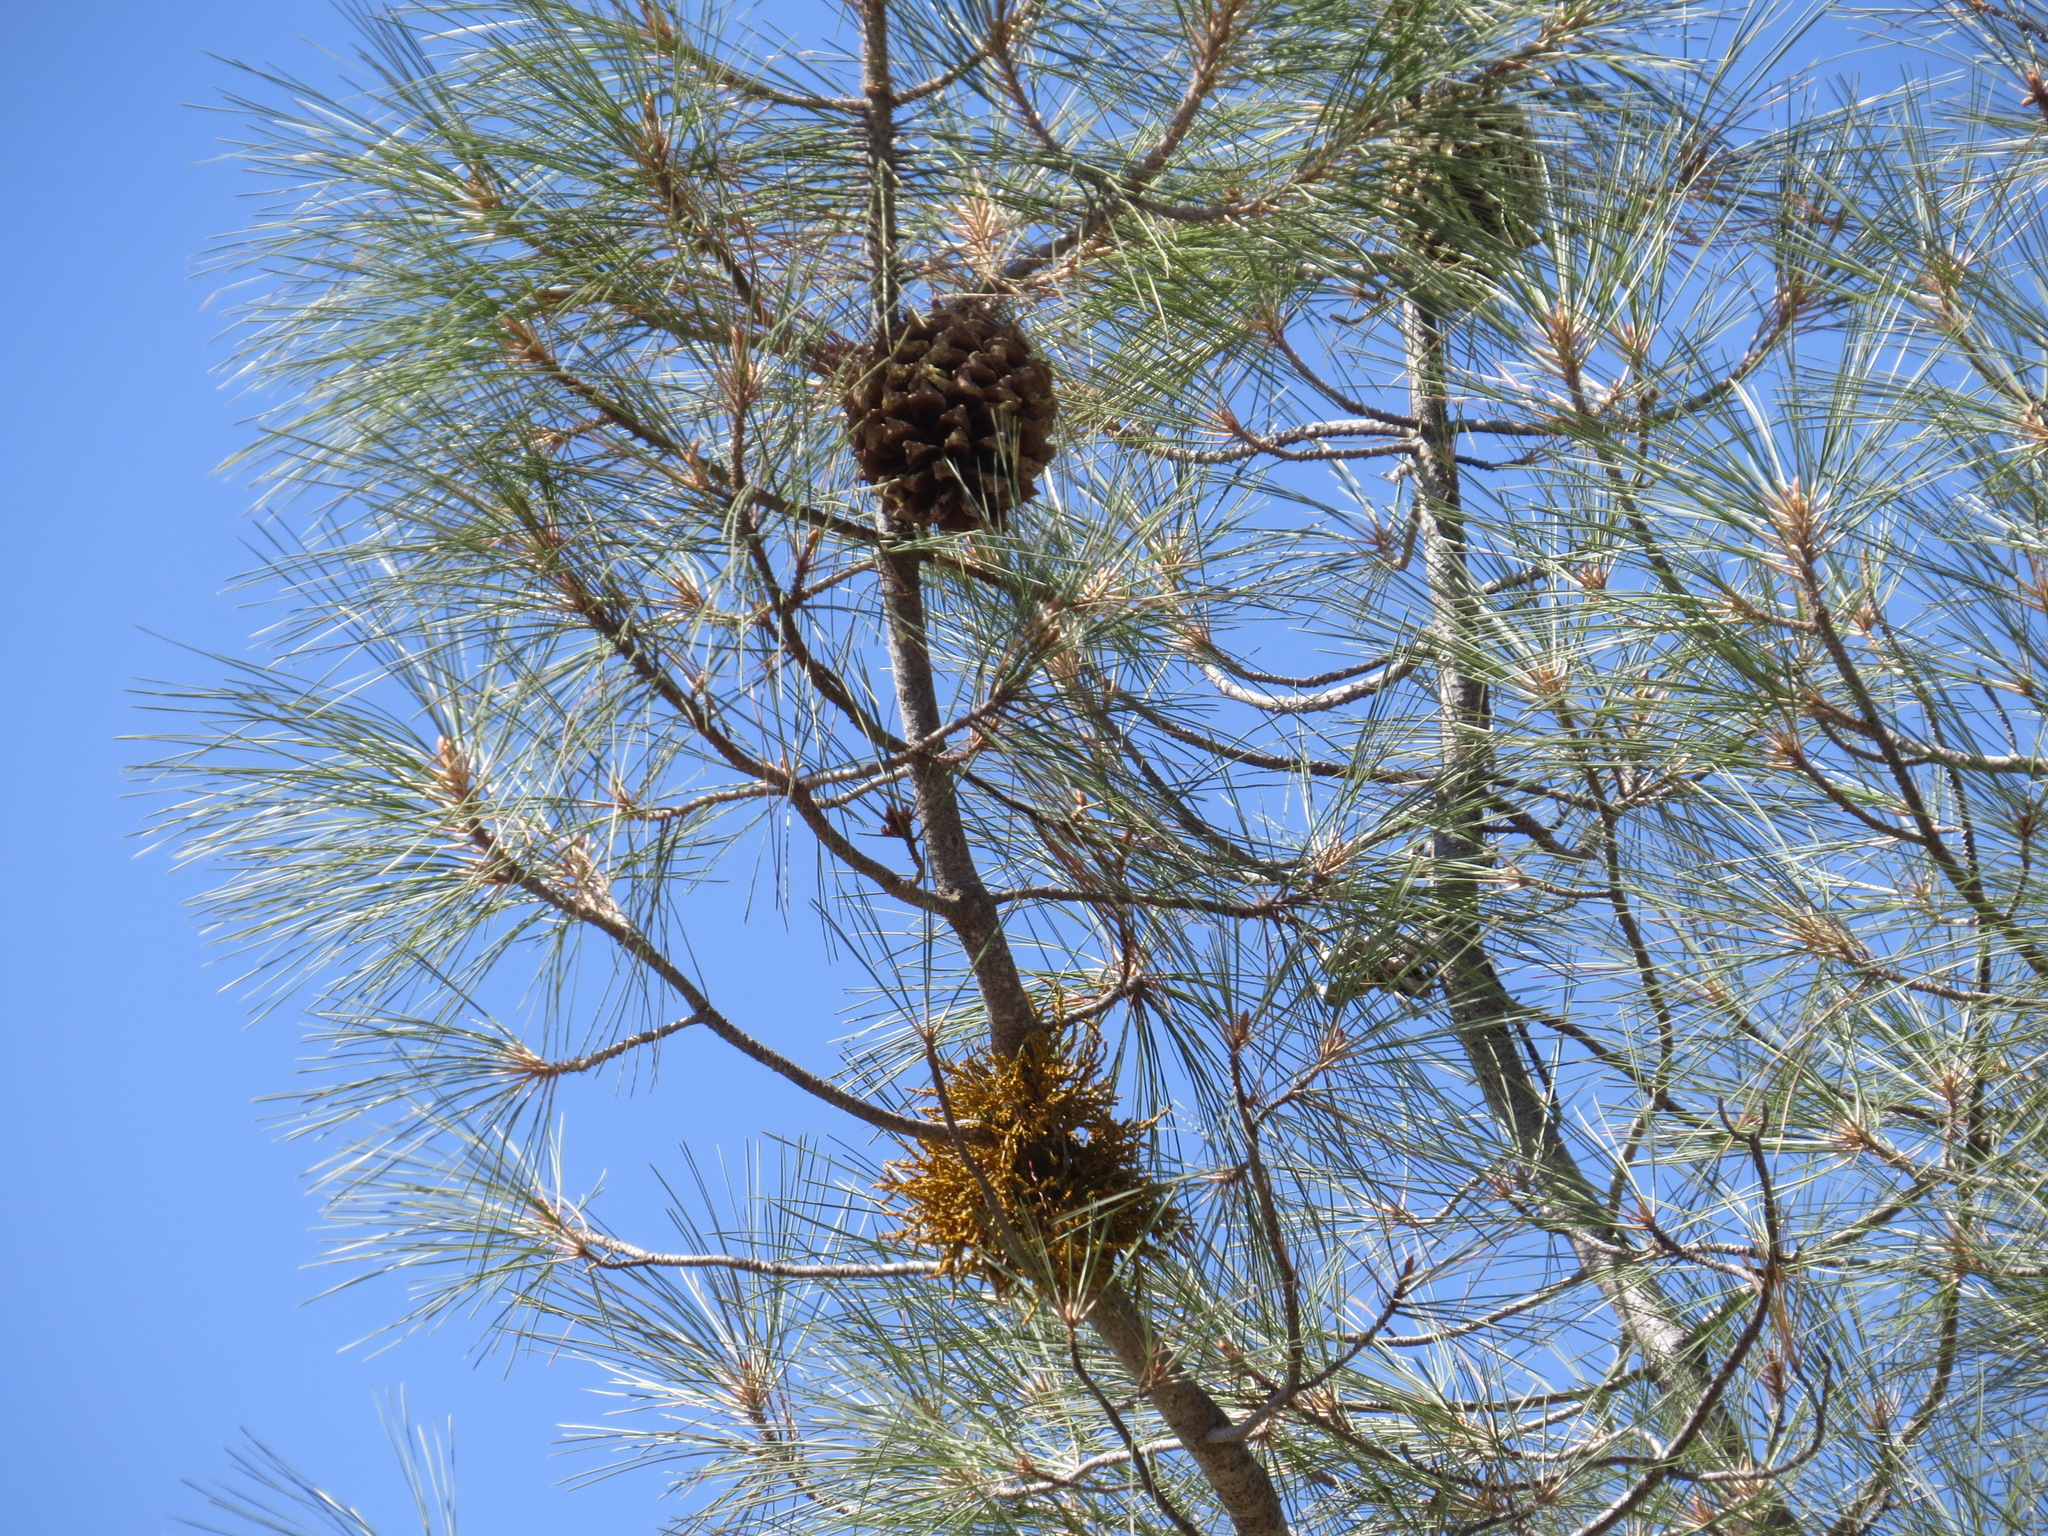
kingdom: Plantae
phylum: Tracheophyta
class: Magnoliopsida
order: Santalales
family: Viscaceae
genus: Arceuthobium
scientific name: Arceuthobium campylopodum
